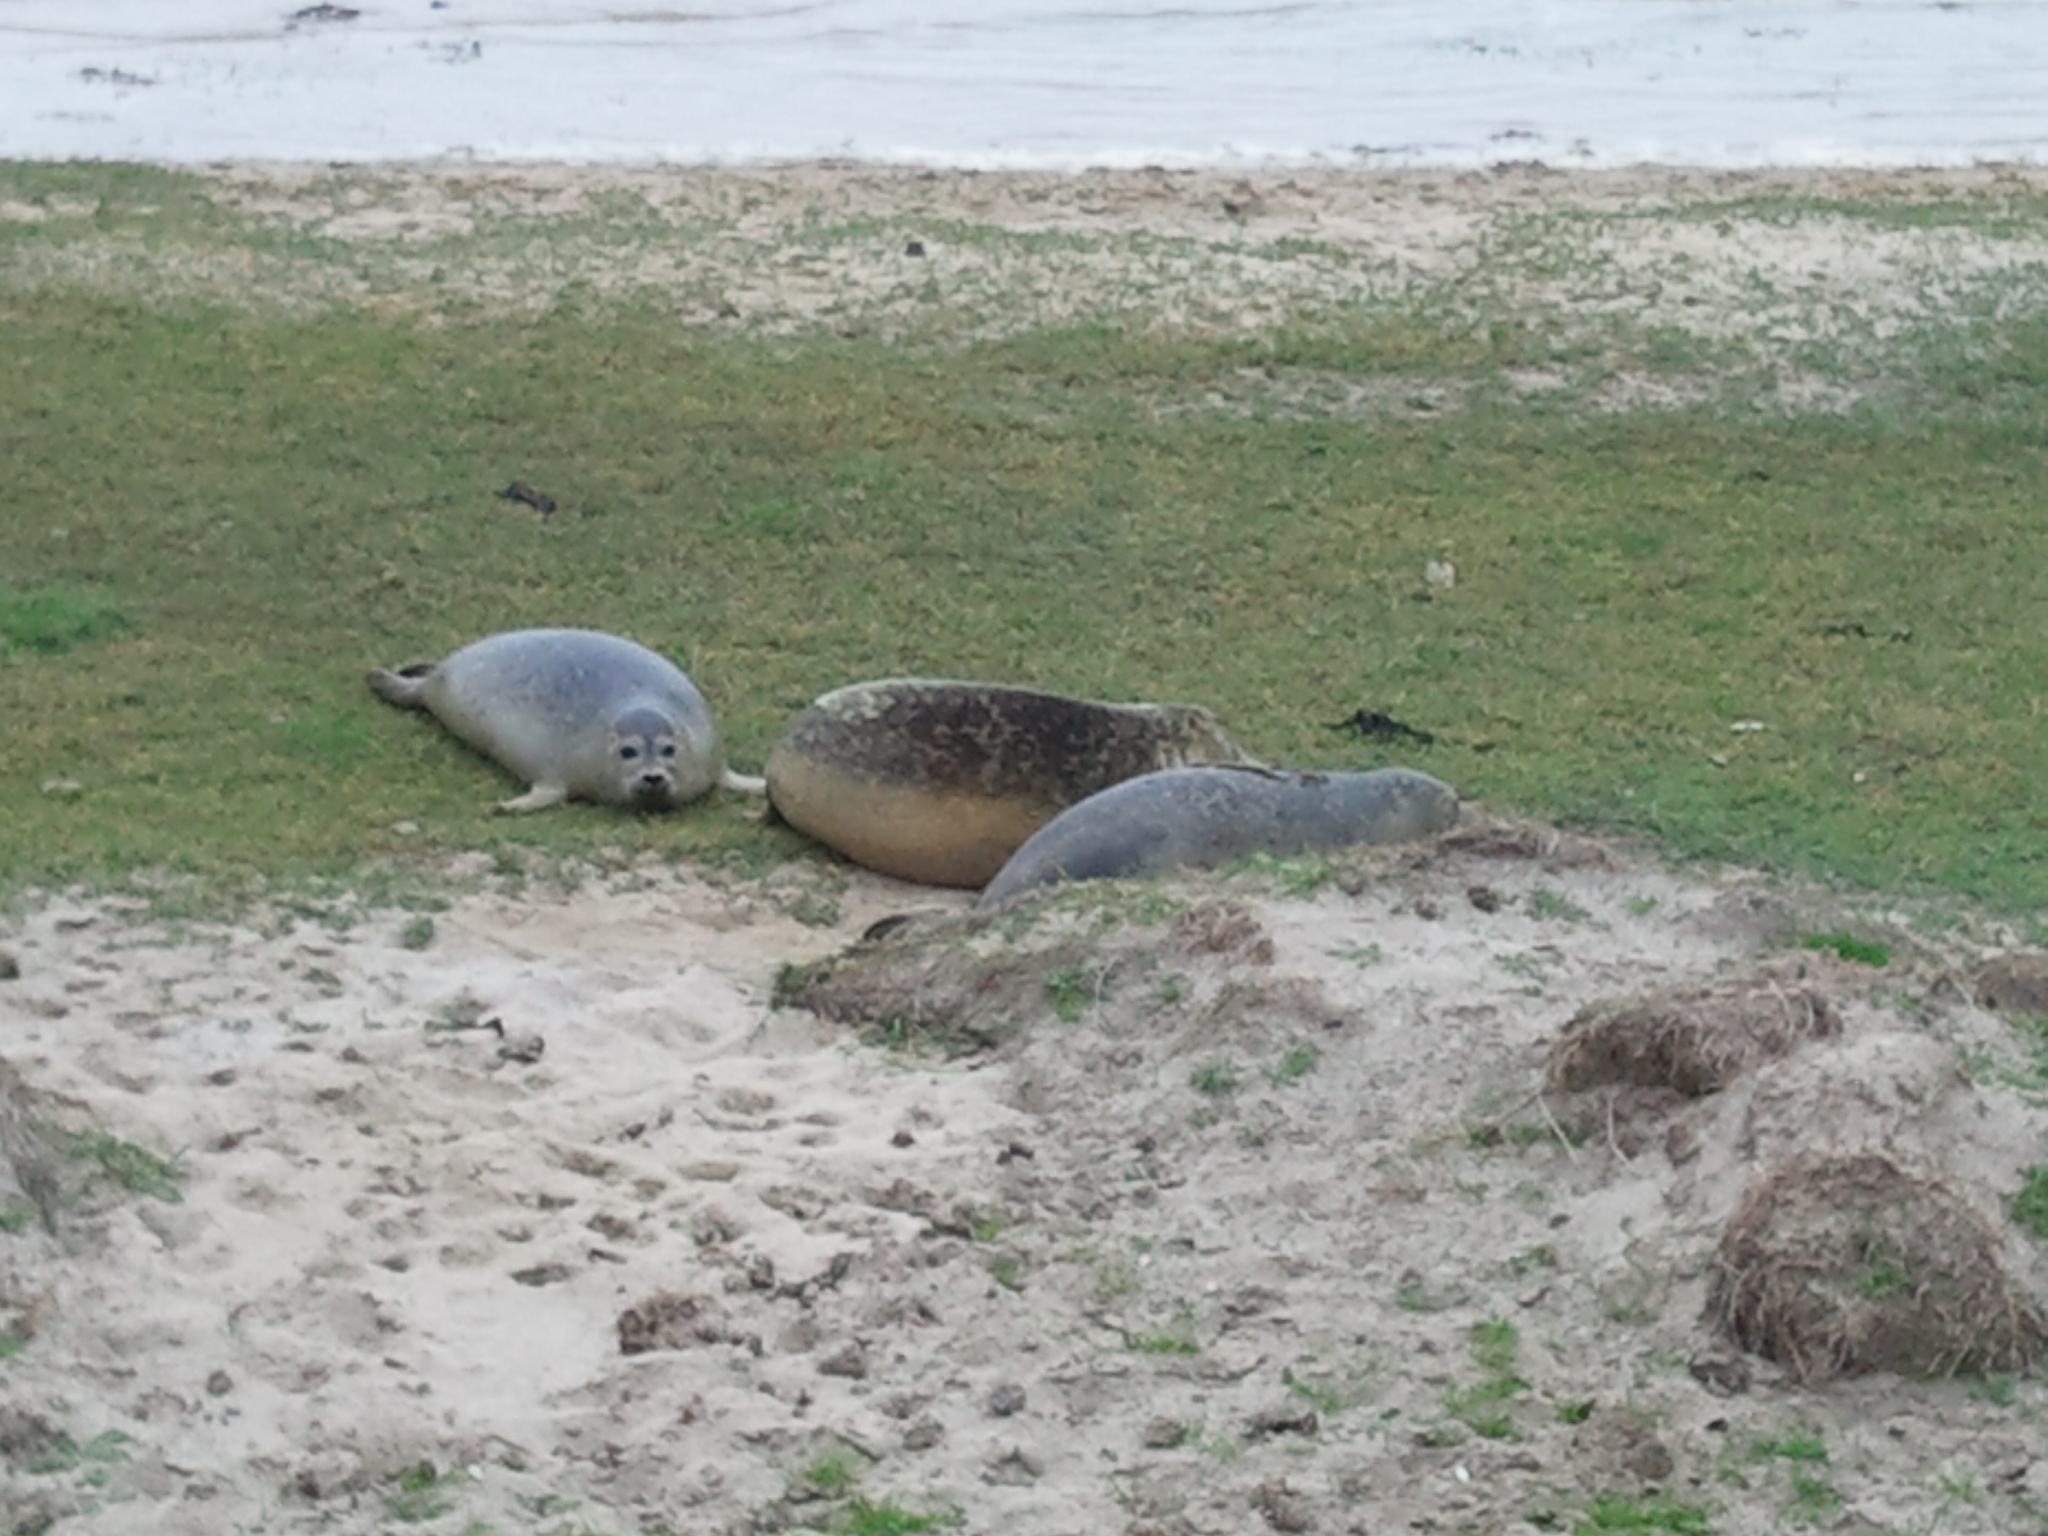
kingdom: Animalia
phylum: Chordata
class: Mammalia
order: Carnivora
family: Phocidae
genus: Phoca
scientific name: Phoca vitulina
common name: Harbor seal
